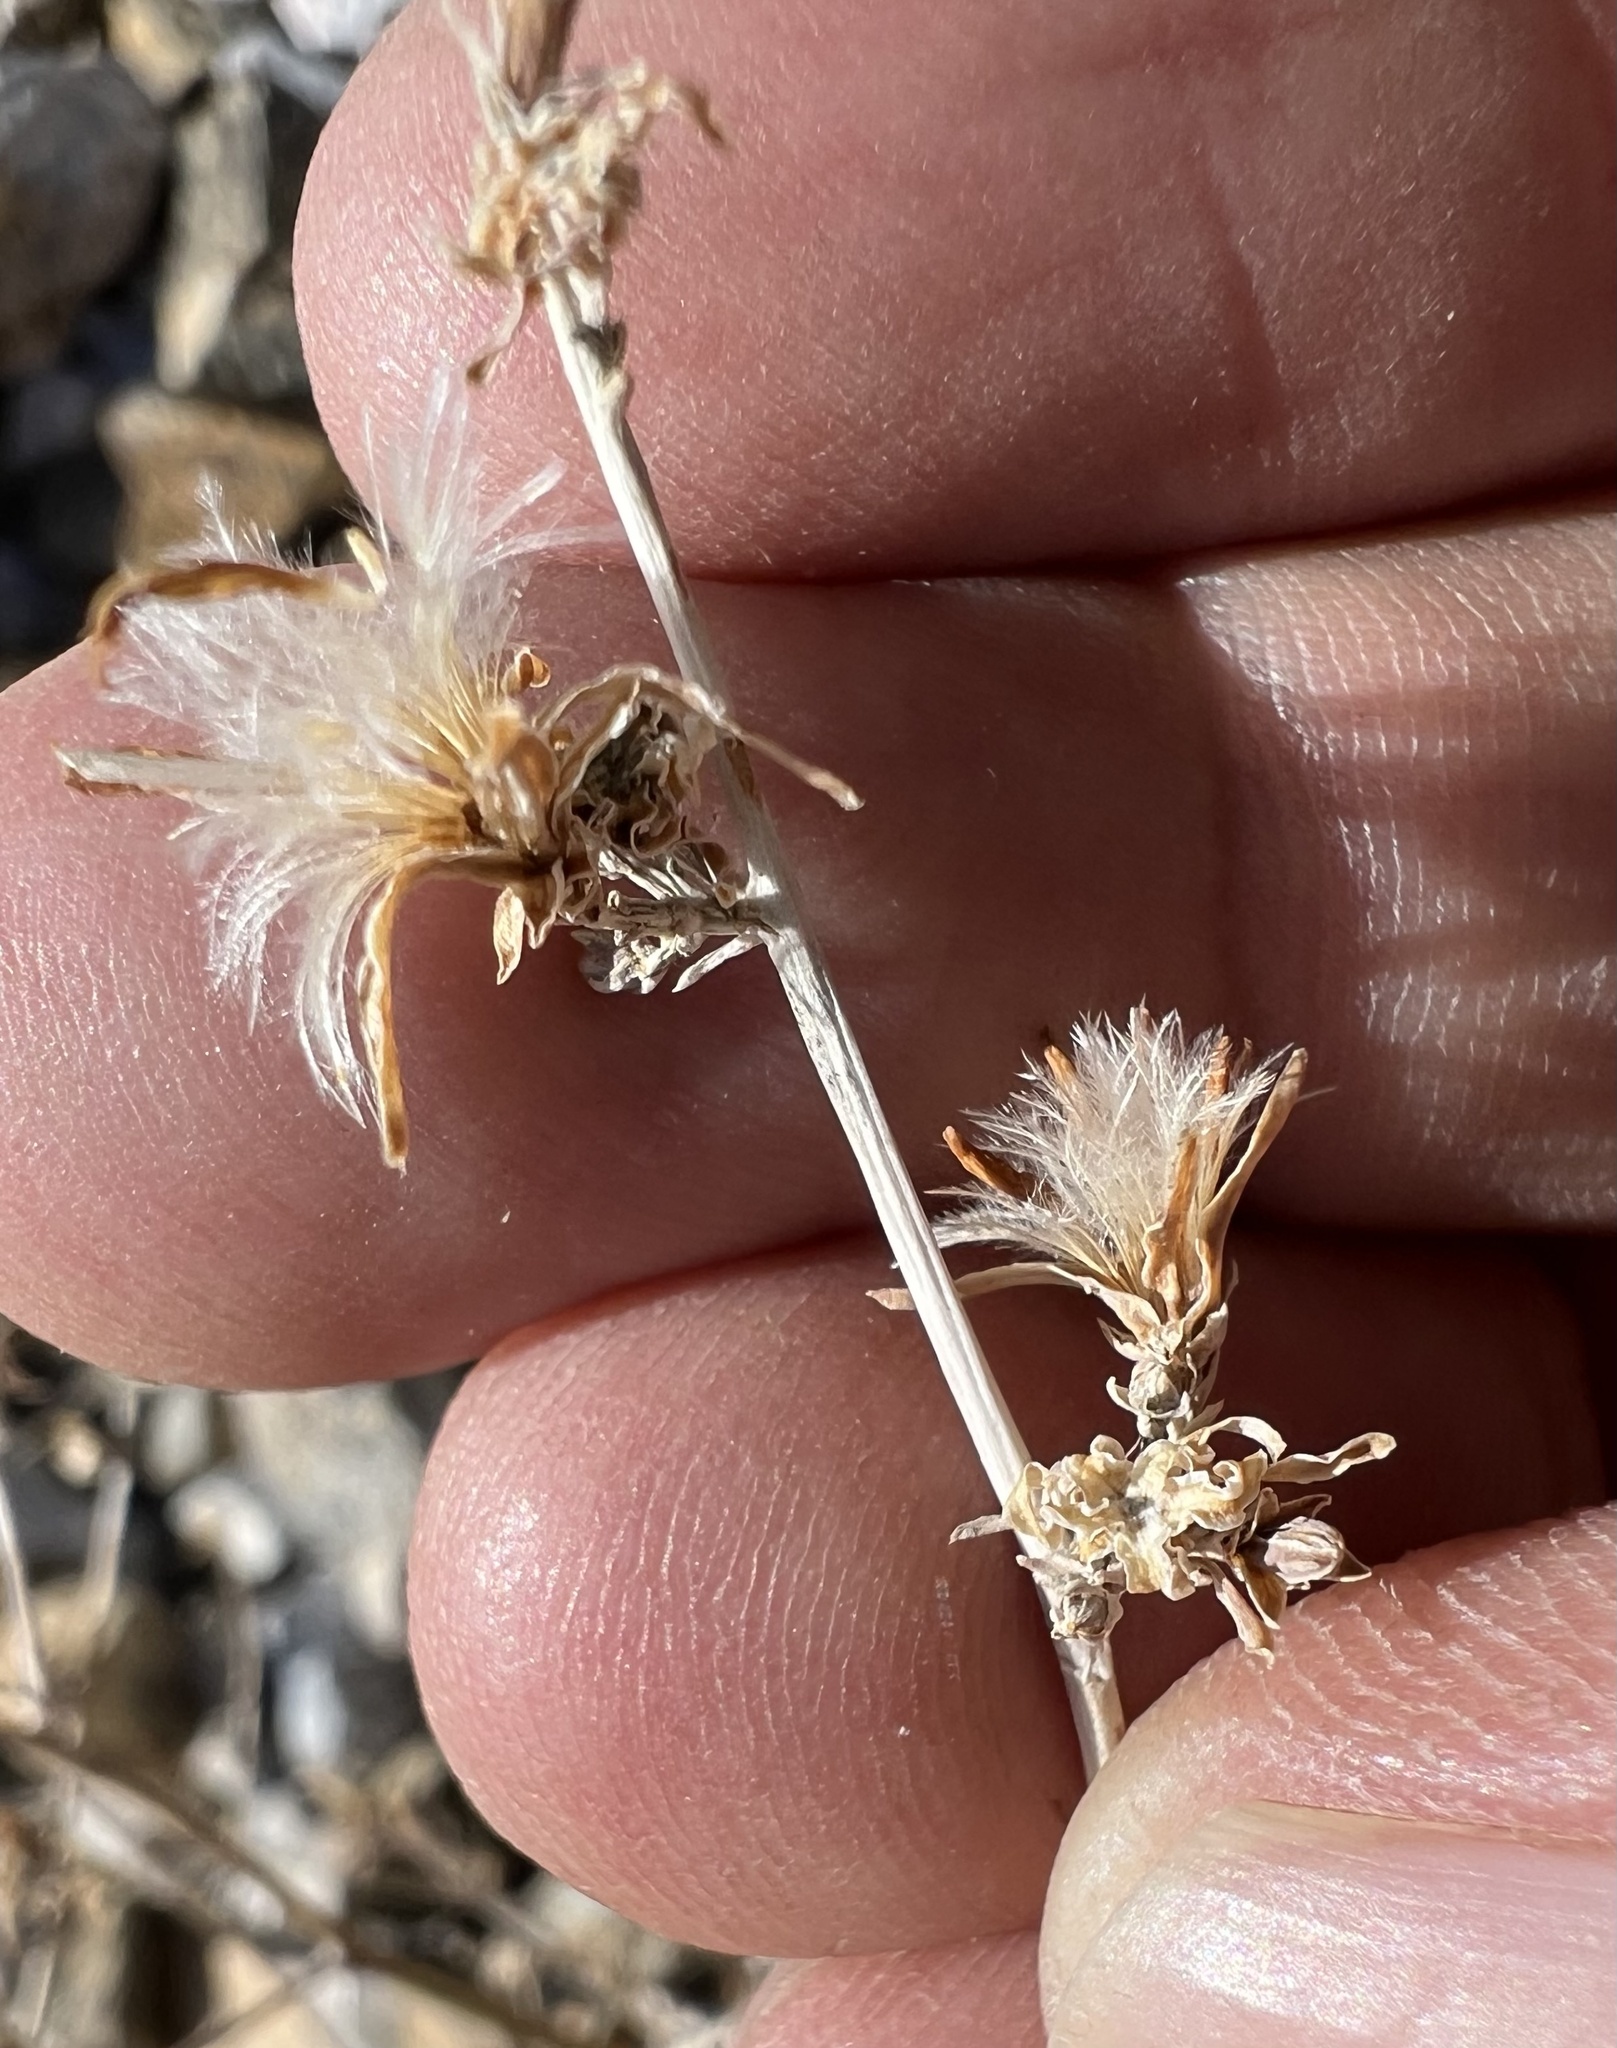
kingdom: Plantae
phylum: Tracheophyta
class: Magnoliopsida
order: Asterales
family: Asteraceae
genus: Stephanomeria
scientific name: Stephanomeria pauciflora
